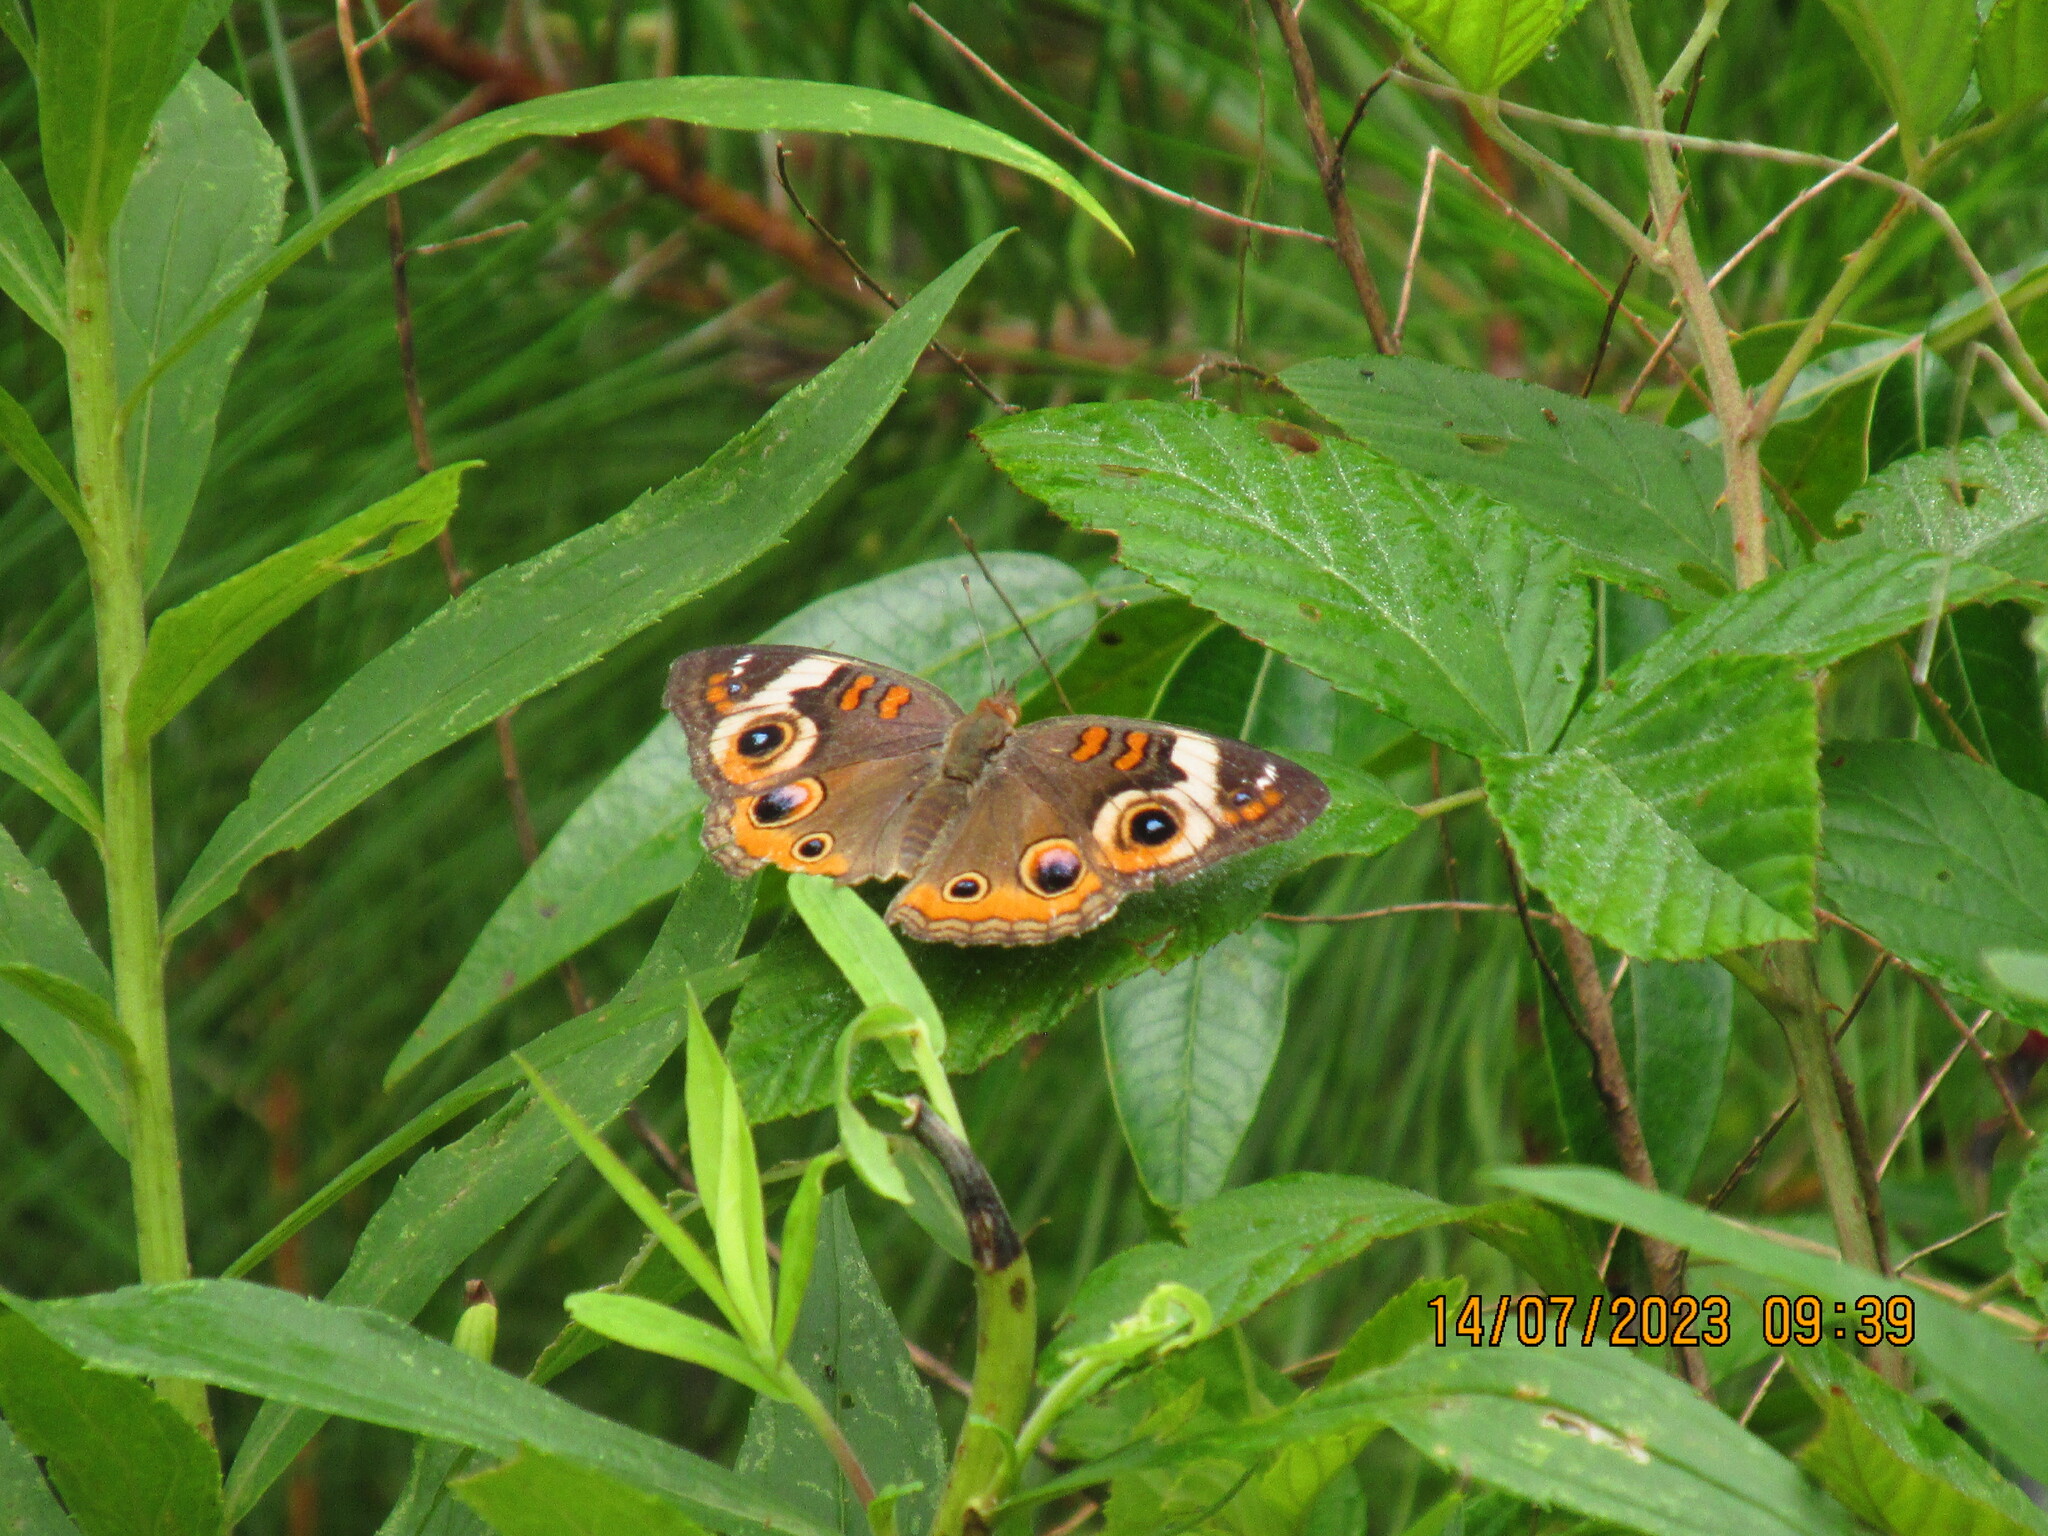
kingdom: Animalia
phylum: Arthropoda
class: Insecta
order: Lepidoptera
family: Nymphalidae
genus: Junonia
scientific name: Junonia coenia
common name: Common buckeye
